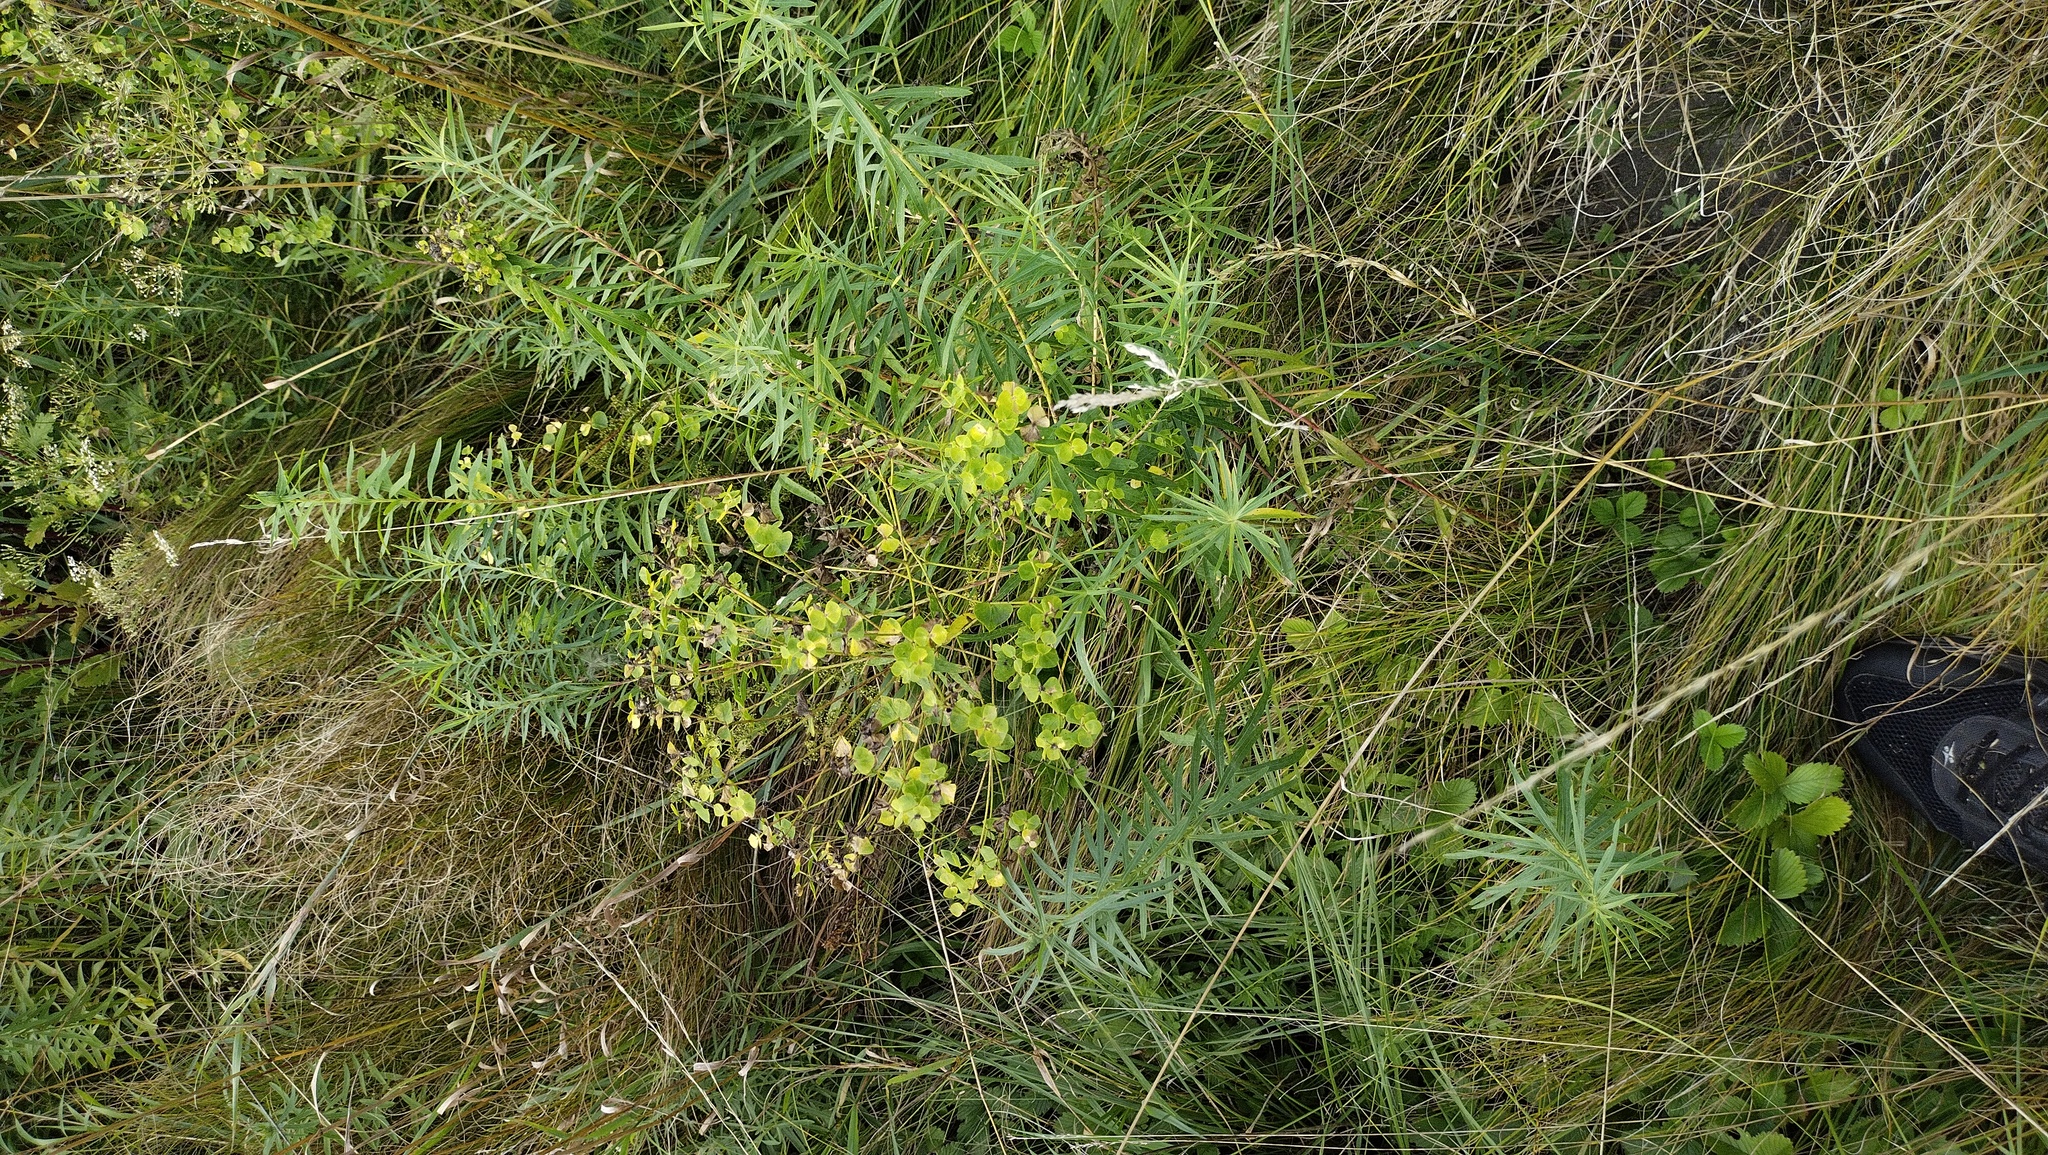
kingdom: Plantae
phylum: Tracheophyta
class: Magnoliopsida
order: Malpighiales
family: Euphorbiaceae
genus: Euphorbia
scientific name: Euphorbia virgata
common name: Leafy spurge
